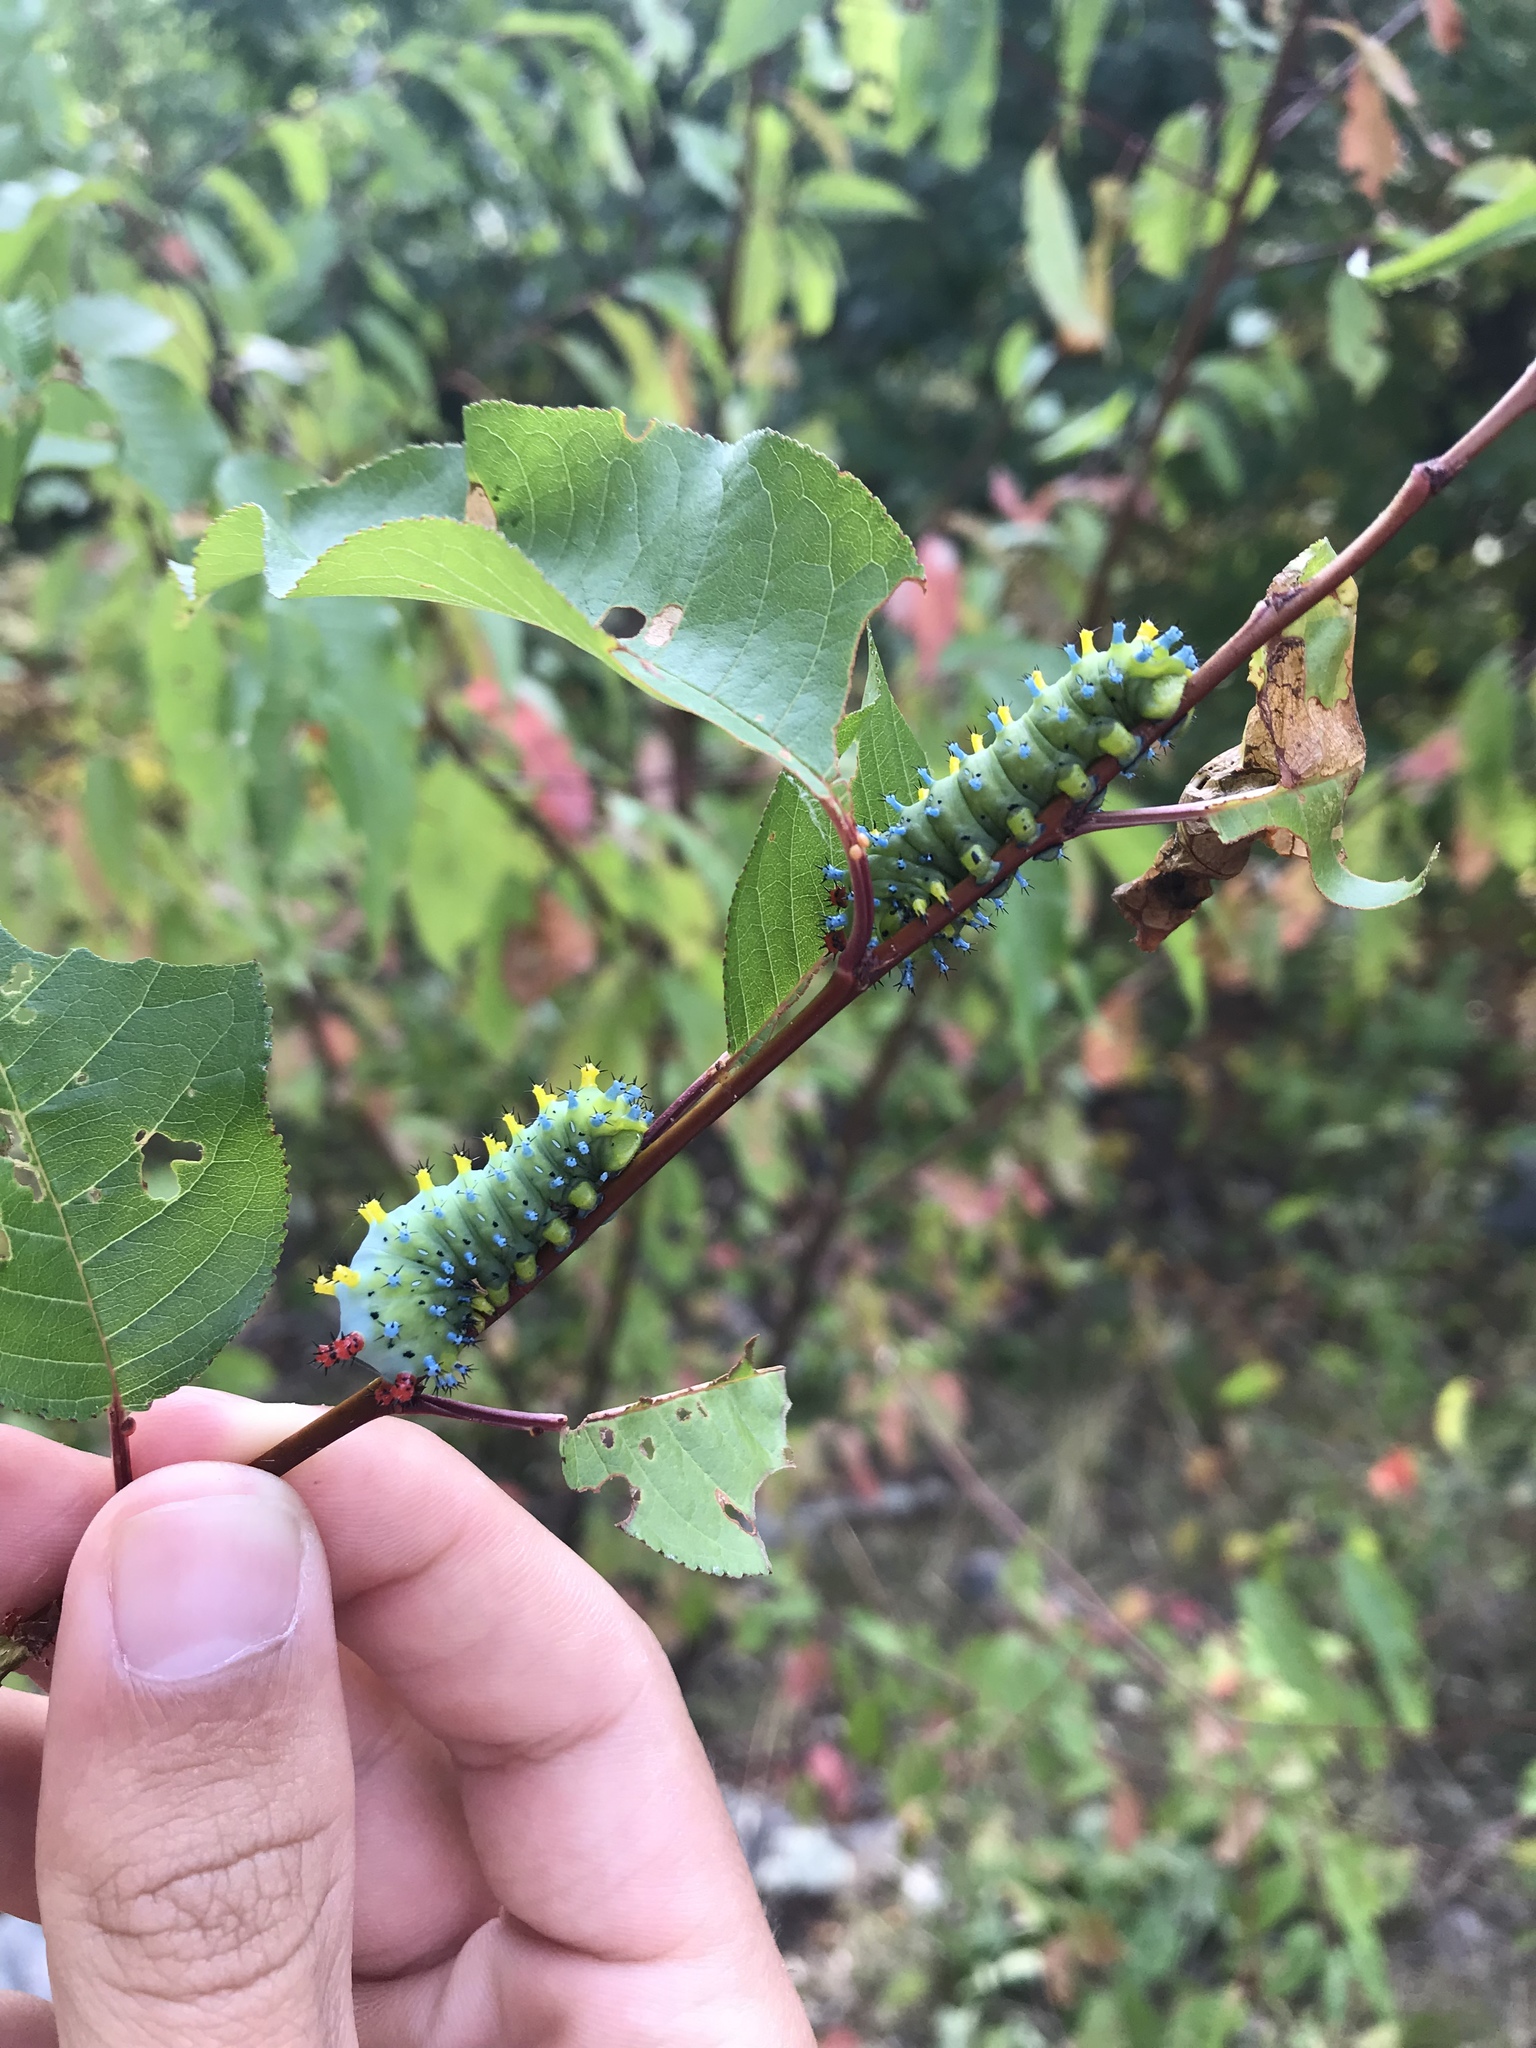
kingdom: Animalia
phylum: Arthropoda
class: Insecta
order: Lepidoptera
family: Saturniidae
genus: Hyalophora
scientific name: Hyalophora cecropia
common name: Cecropia silkmoth
